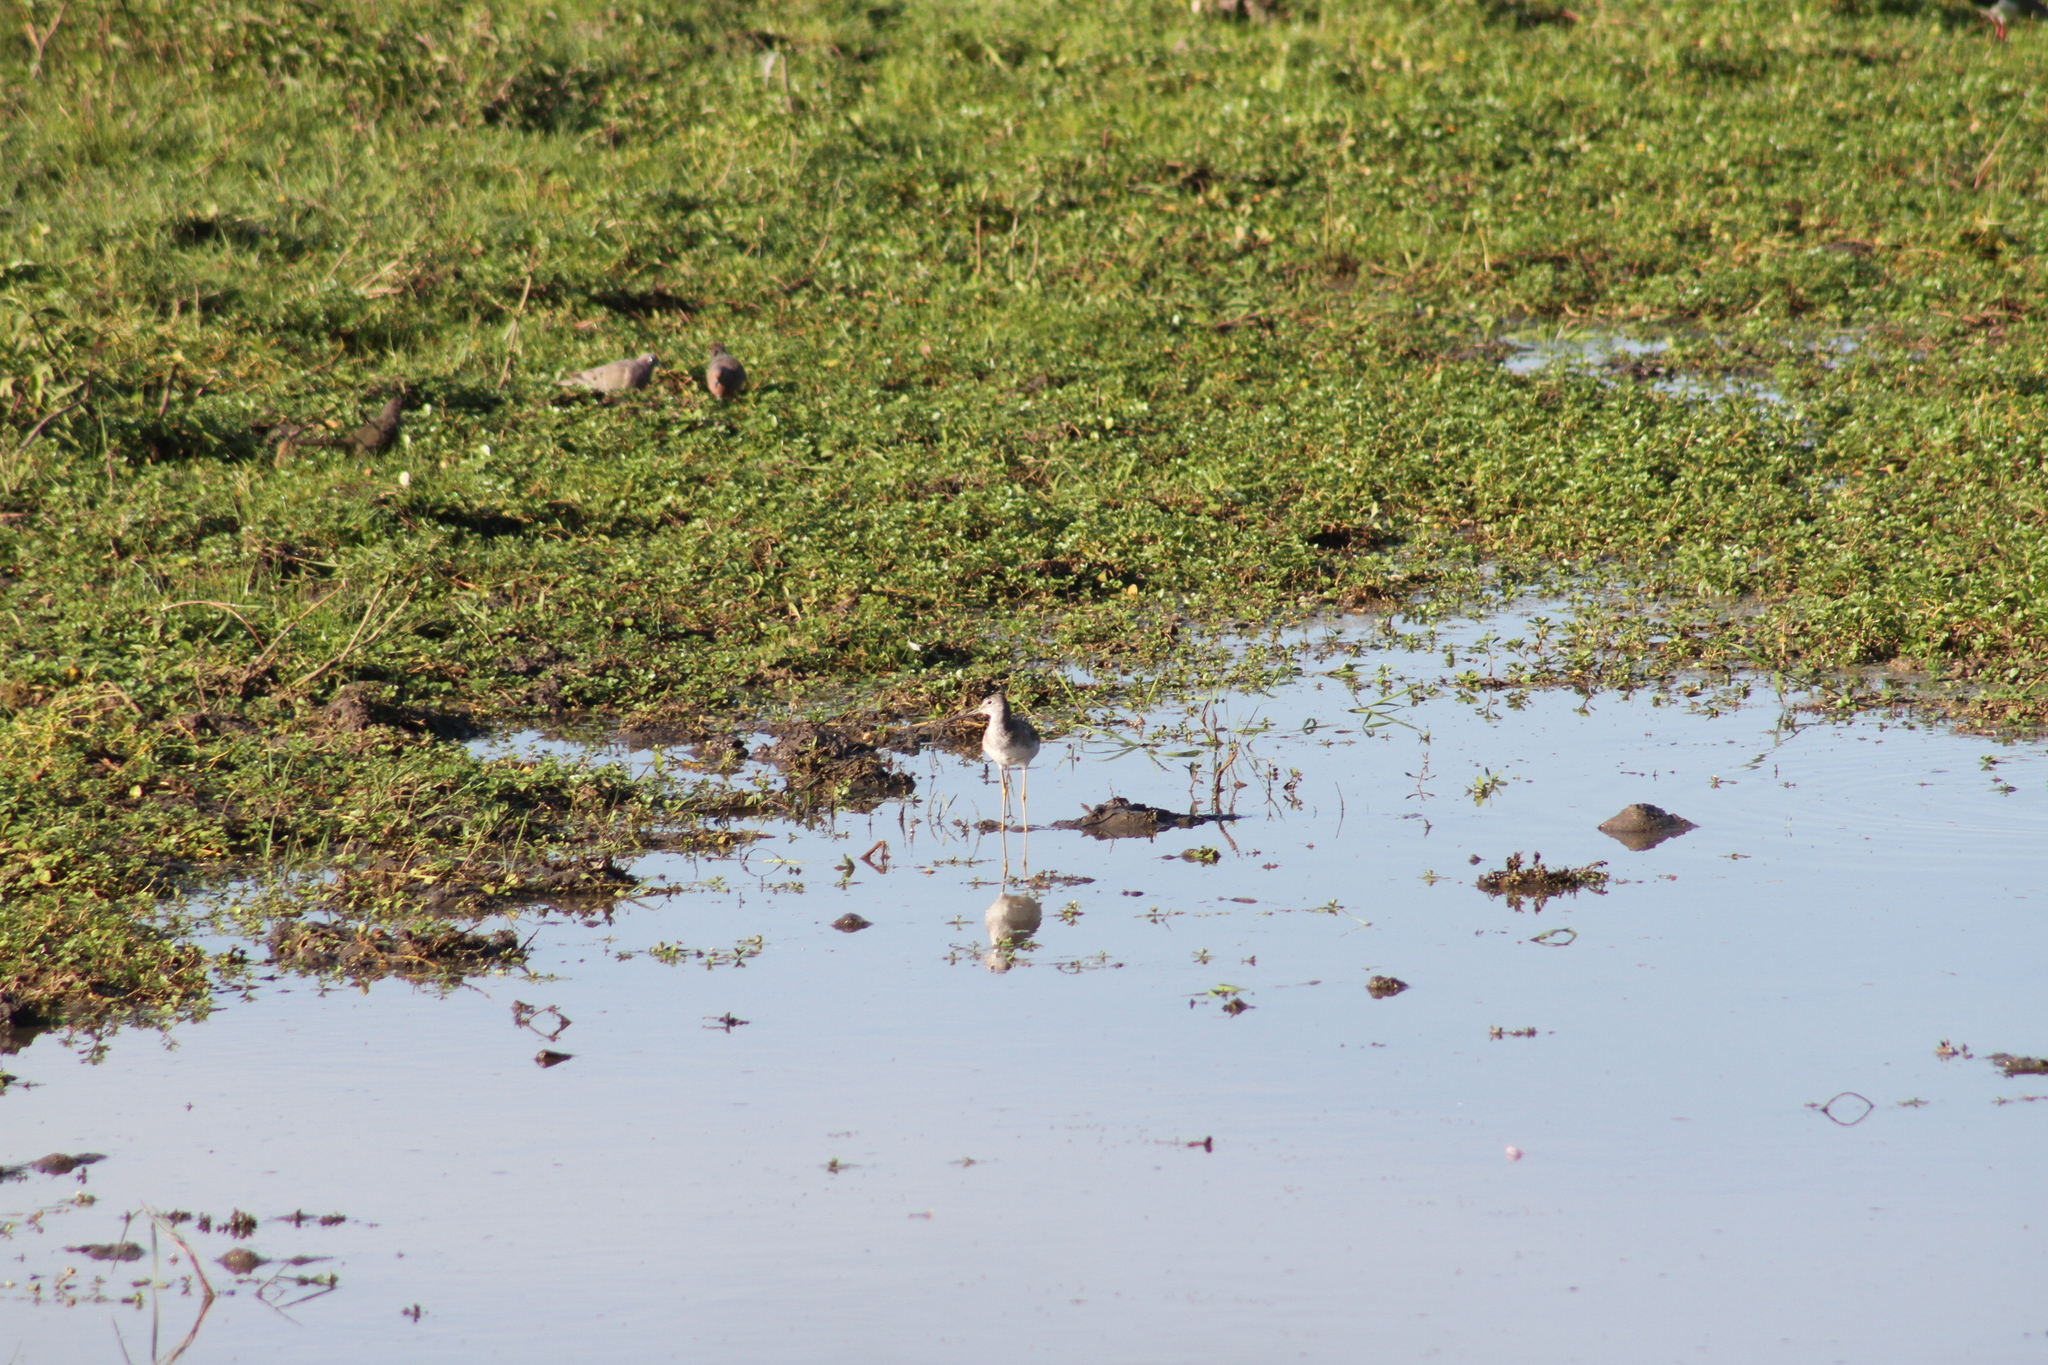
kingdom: Animalia
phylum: Chordata
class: Aves
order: Charadriiformes
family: Scolopacidae
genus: Tringa
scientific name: Tringa melanoleuca
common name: Greater yellowlegs
